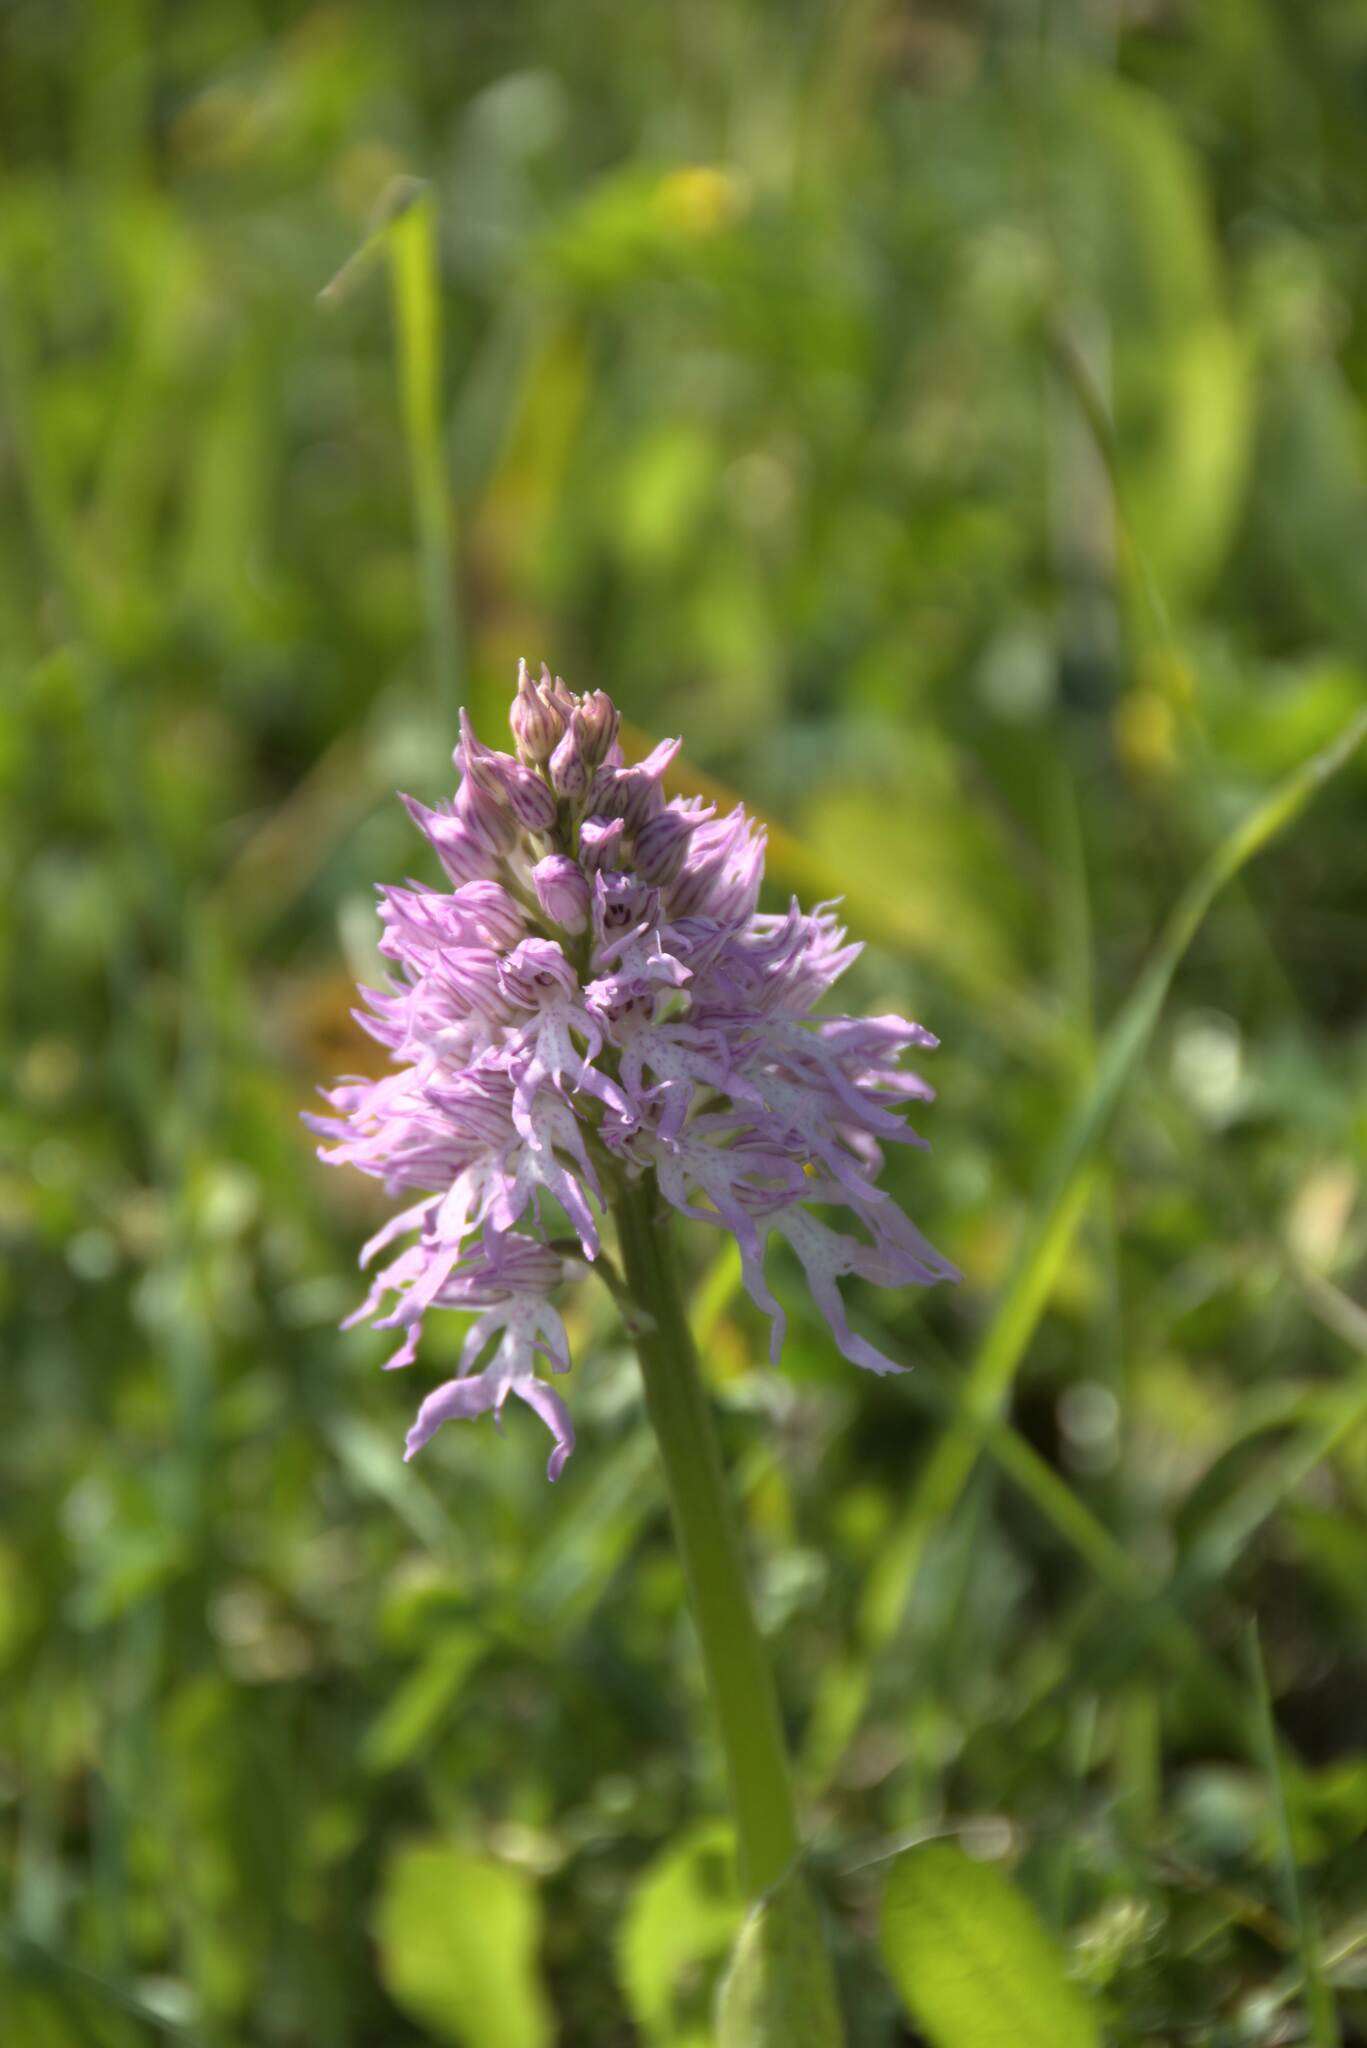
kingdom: Plantae
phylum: Tracheophyta
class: Liliopsida
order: Asparagales
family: Orchidaceae
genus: Orchis
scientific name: Orchis italica
